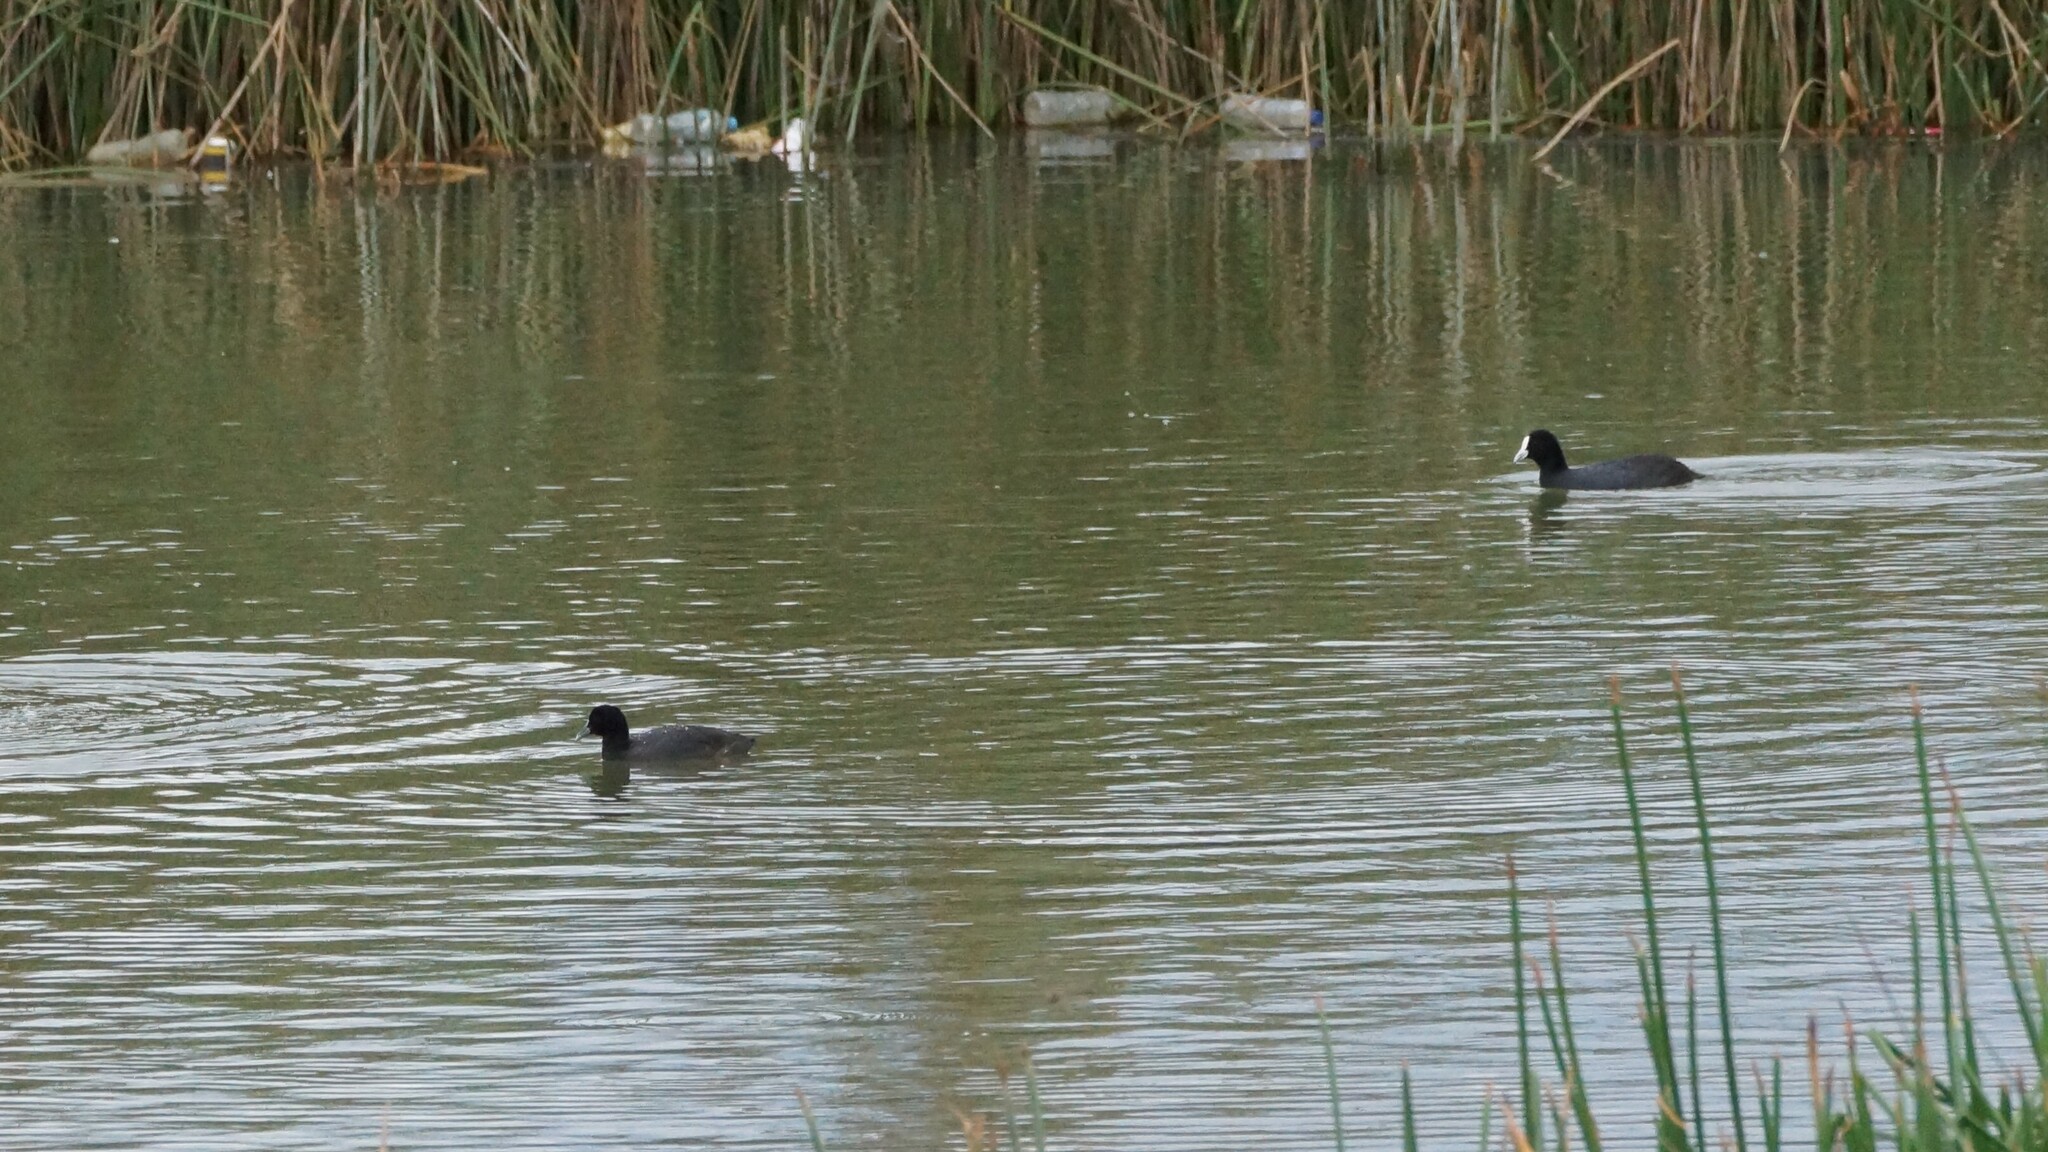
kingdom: Animalia
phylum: Chordata
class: Aves
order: Gruiformes
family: Rallidae
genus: Fulica
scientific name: Fulica atra
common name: Eurasian coot
